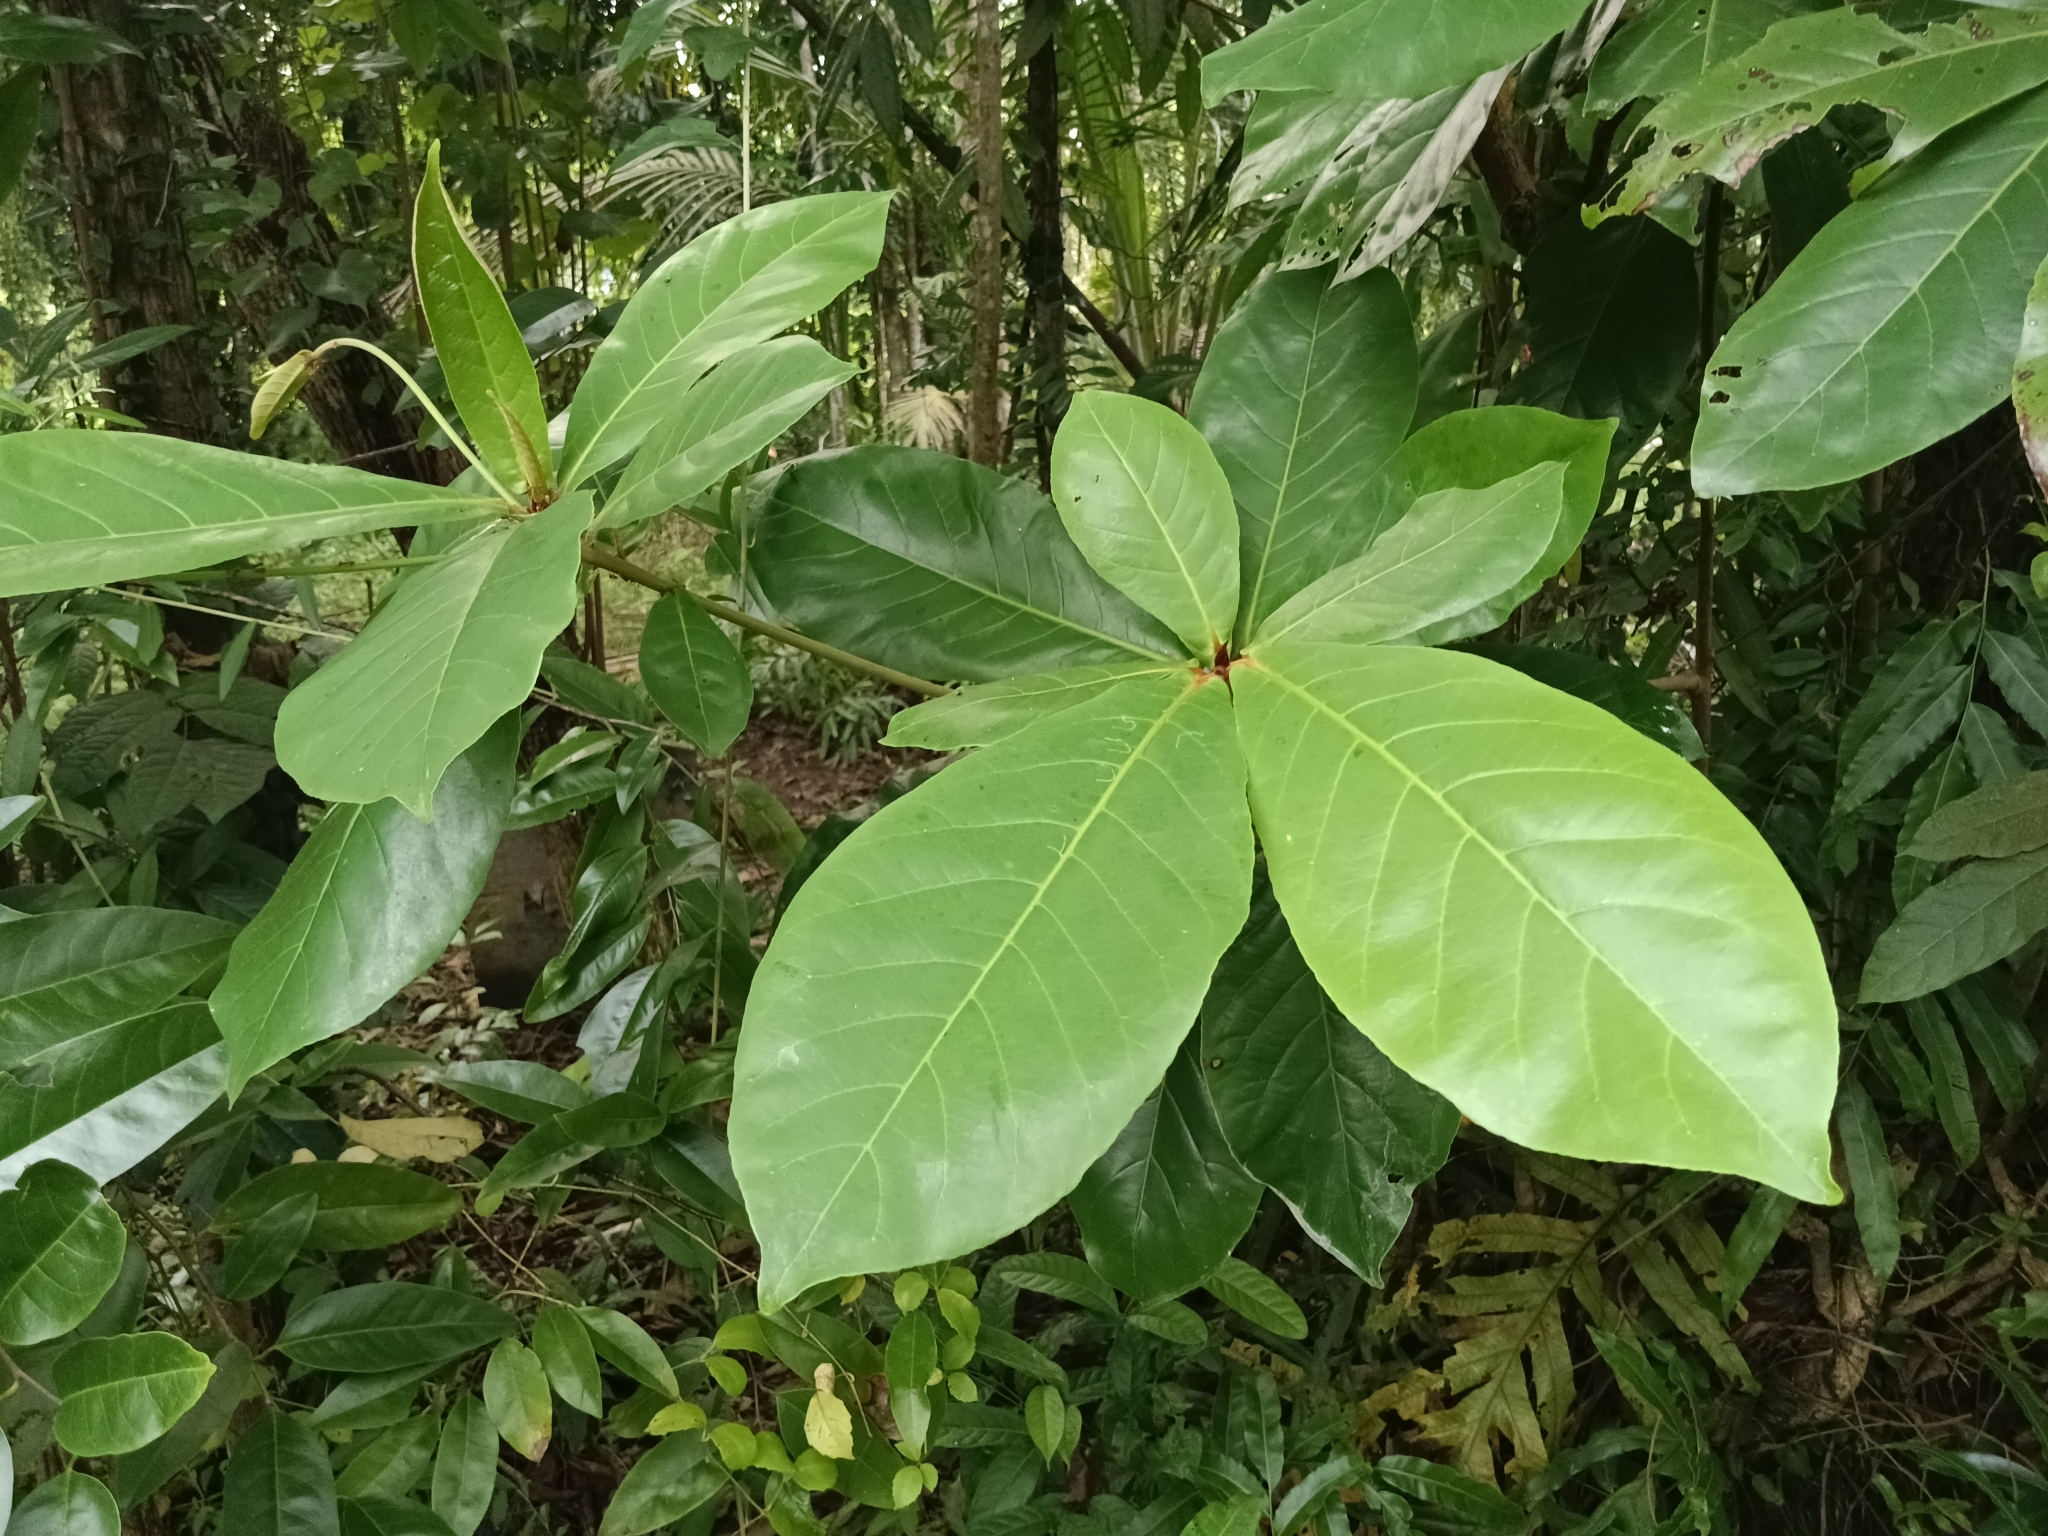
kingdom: Plantae
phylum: Tracheophyta
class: Magnoliopsida
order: Myrtales
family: Combretaceae
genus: Terminalia
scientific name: Terminalia catappa
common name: Tropical almond
